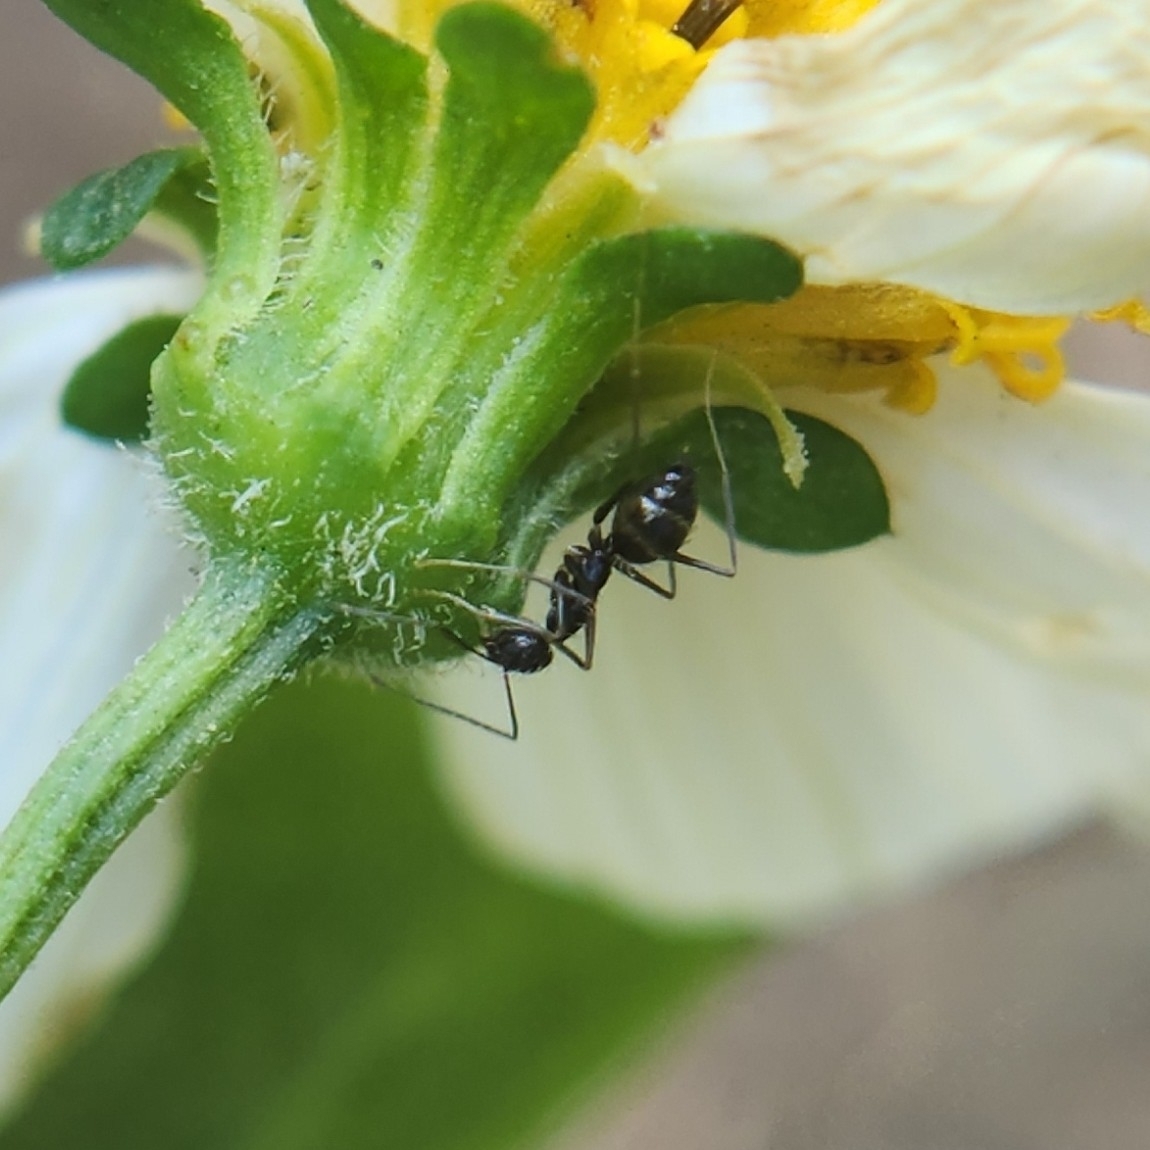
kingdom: Animalia
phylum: Arthropoda
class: Insecta
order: Hymenoptera
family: Formicidae
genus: Paratrechina
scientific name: Paratrechina longicornis
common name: Longhorned crazy ant
